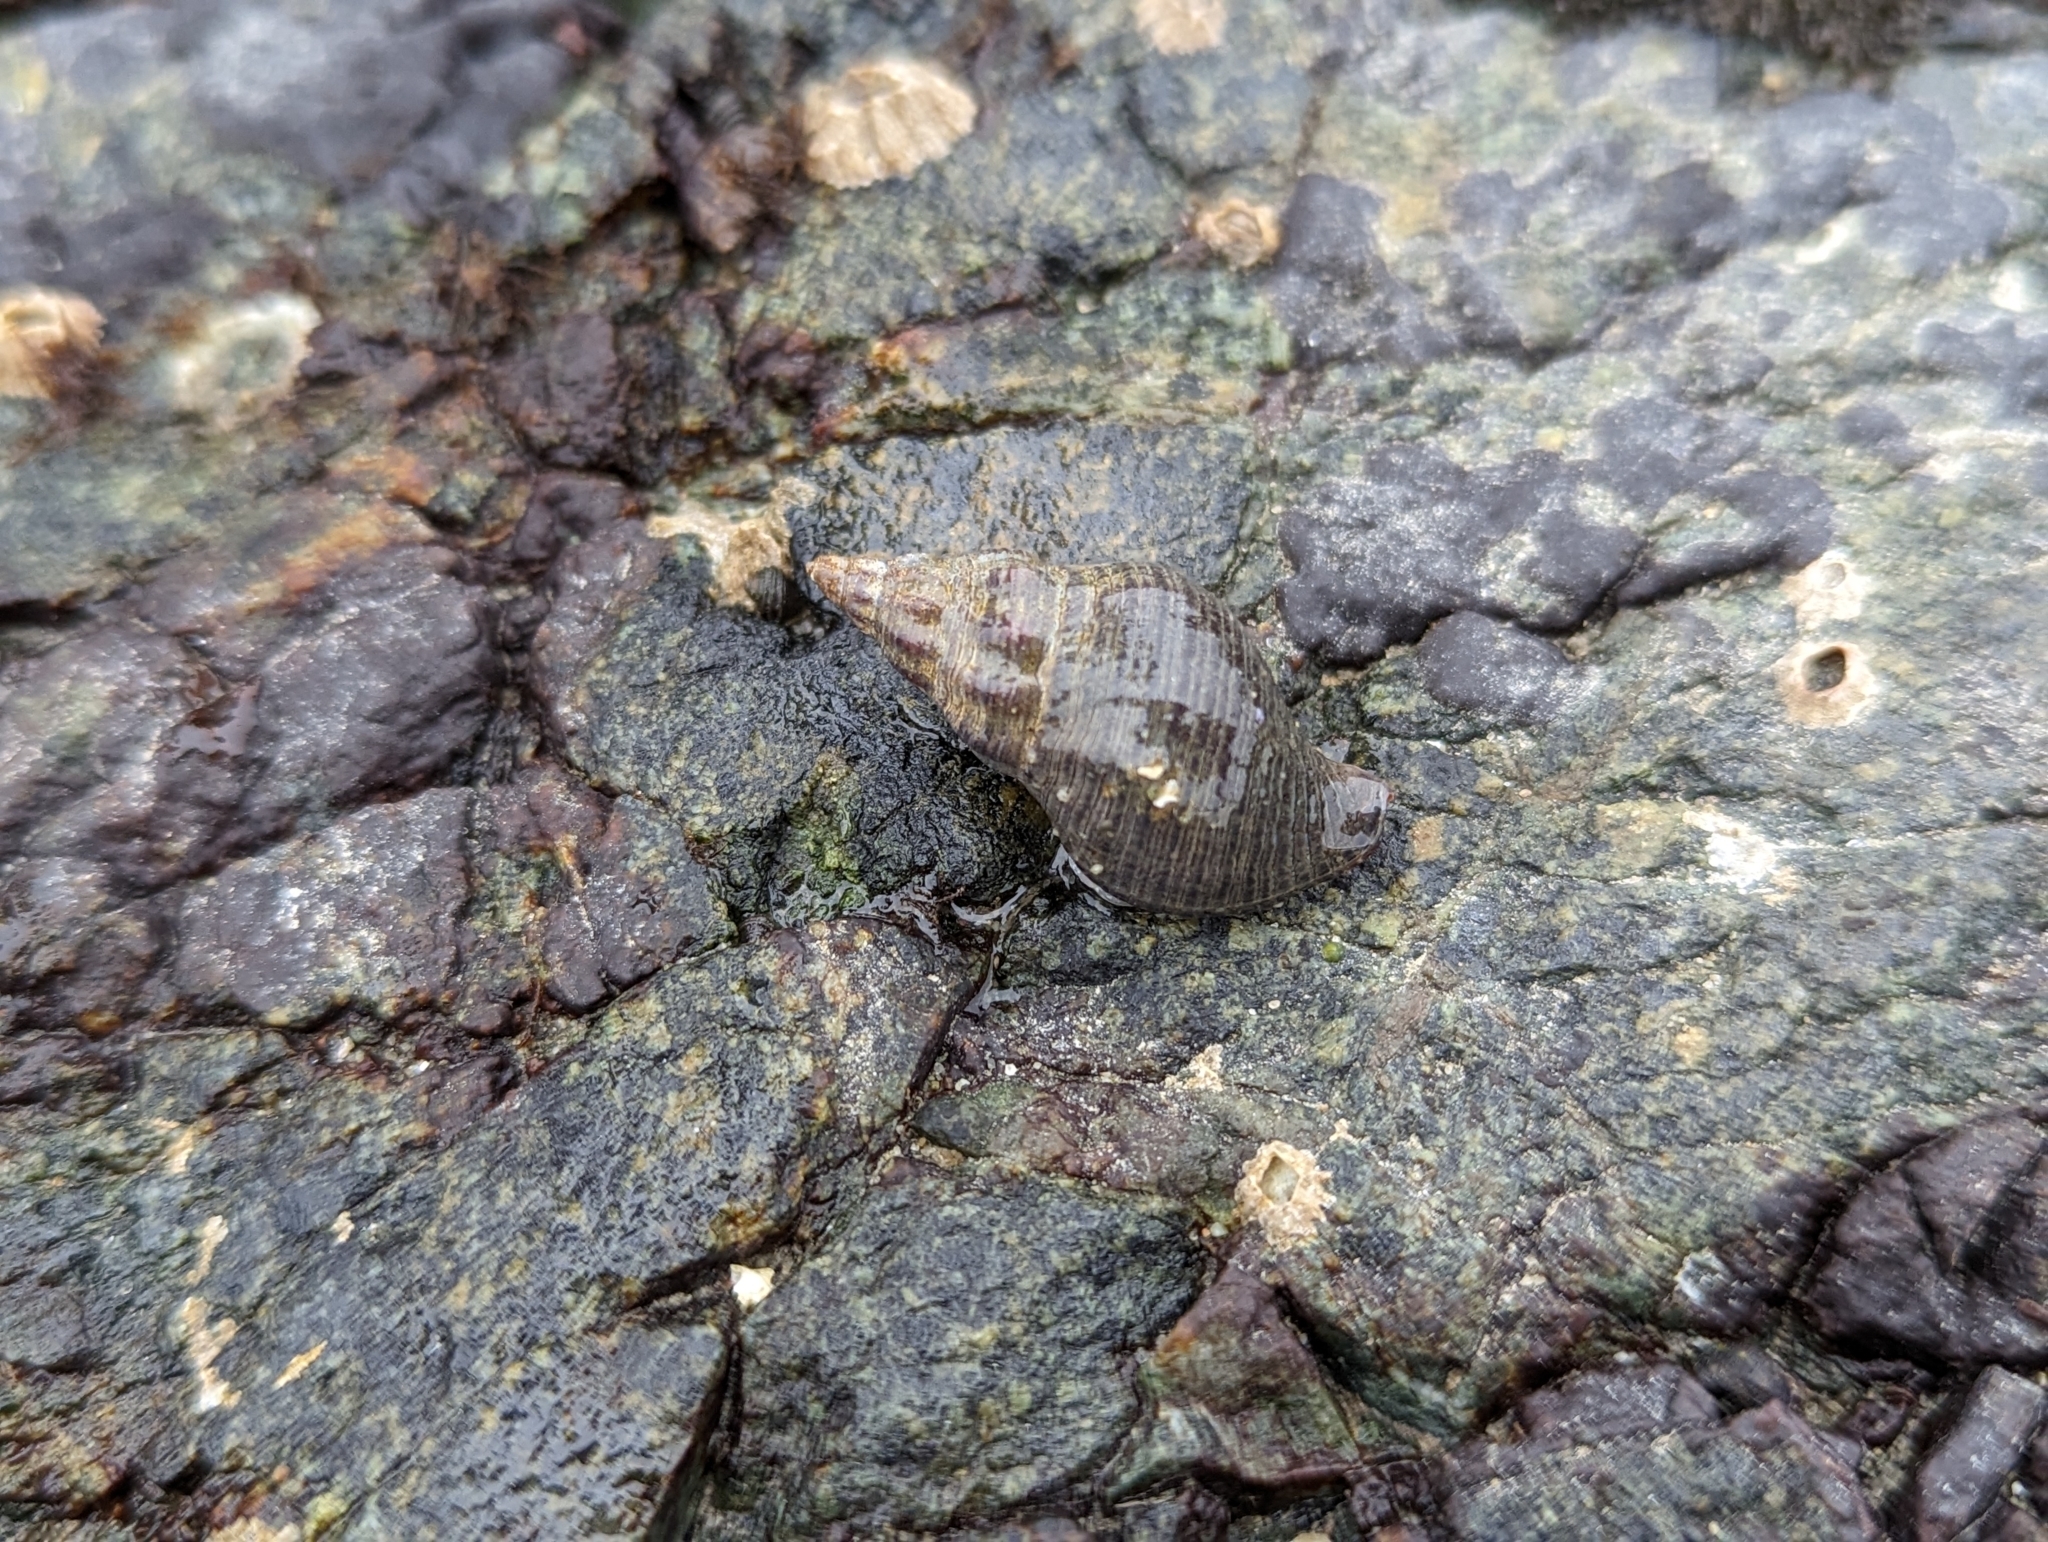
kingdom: Animalia
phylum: Mollusca
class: Gastropoda
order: Neogastropoda
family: Tudiclidae
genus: Lirabuccinum
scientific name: Lirabuccinum dirum
